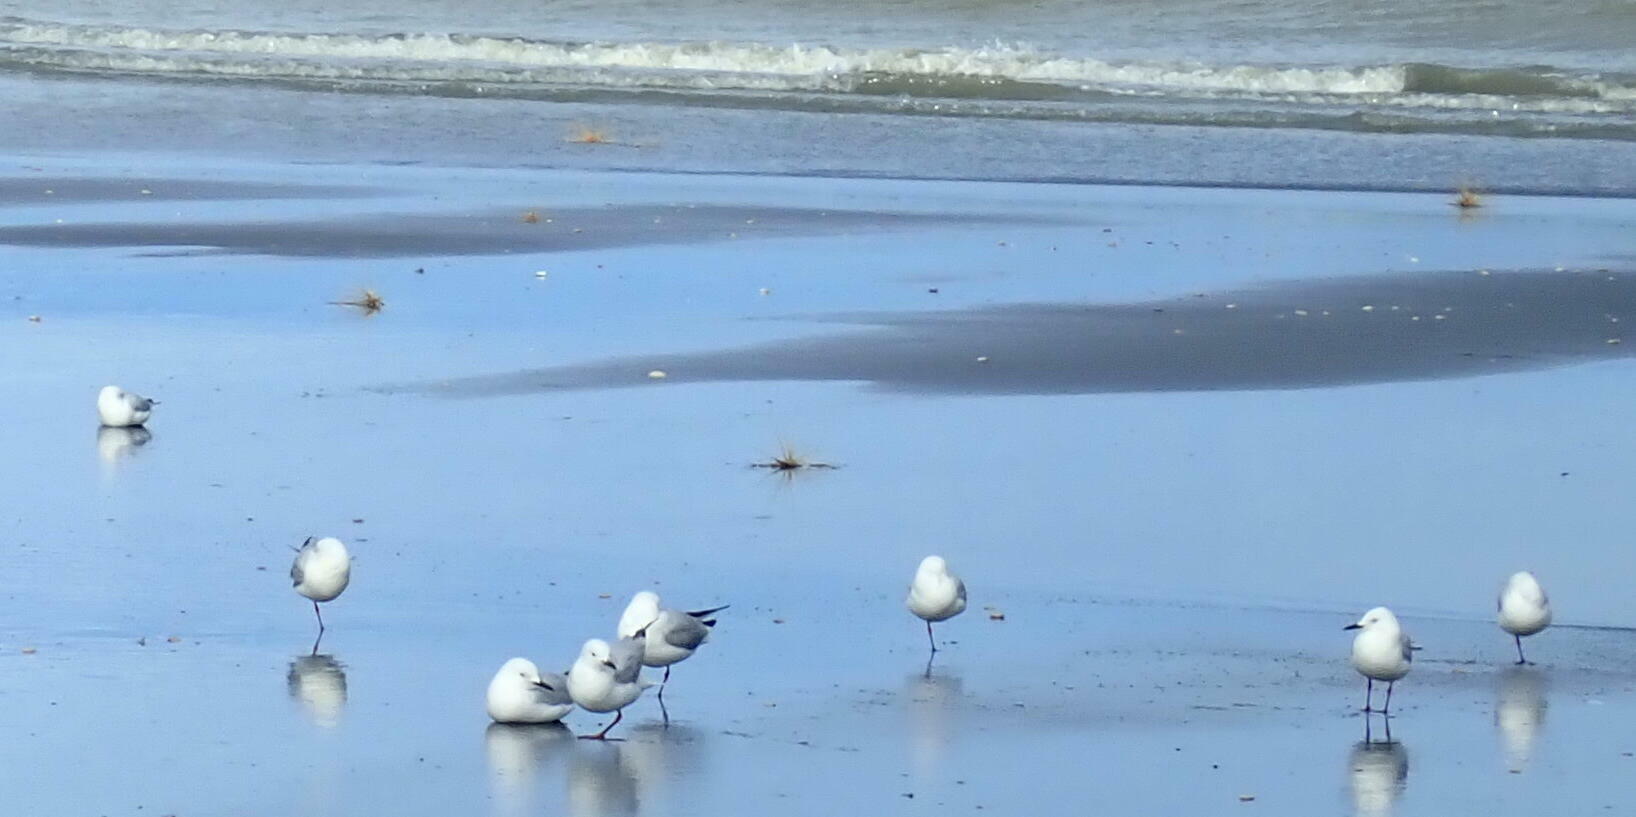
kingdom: Animalia
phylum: Chordata
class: Aves
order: Charadriiformes
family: Laridae
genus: Chroicocephalus
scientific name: Chroicocephalus bulleri
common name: Black-billed gull
